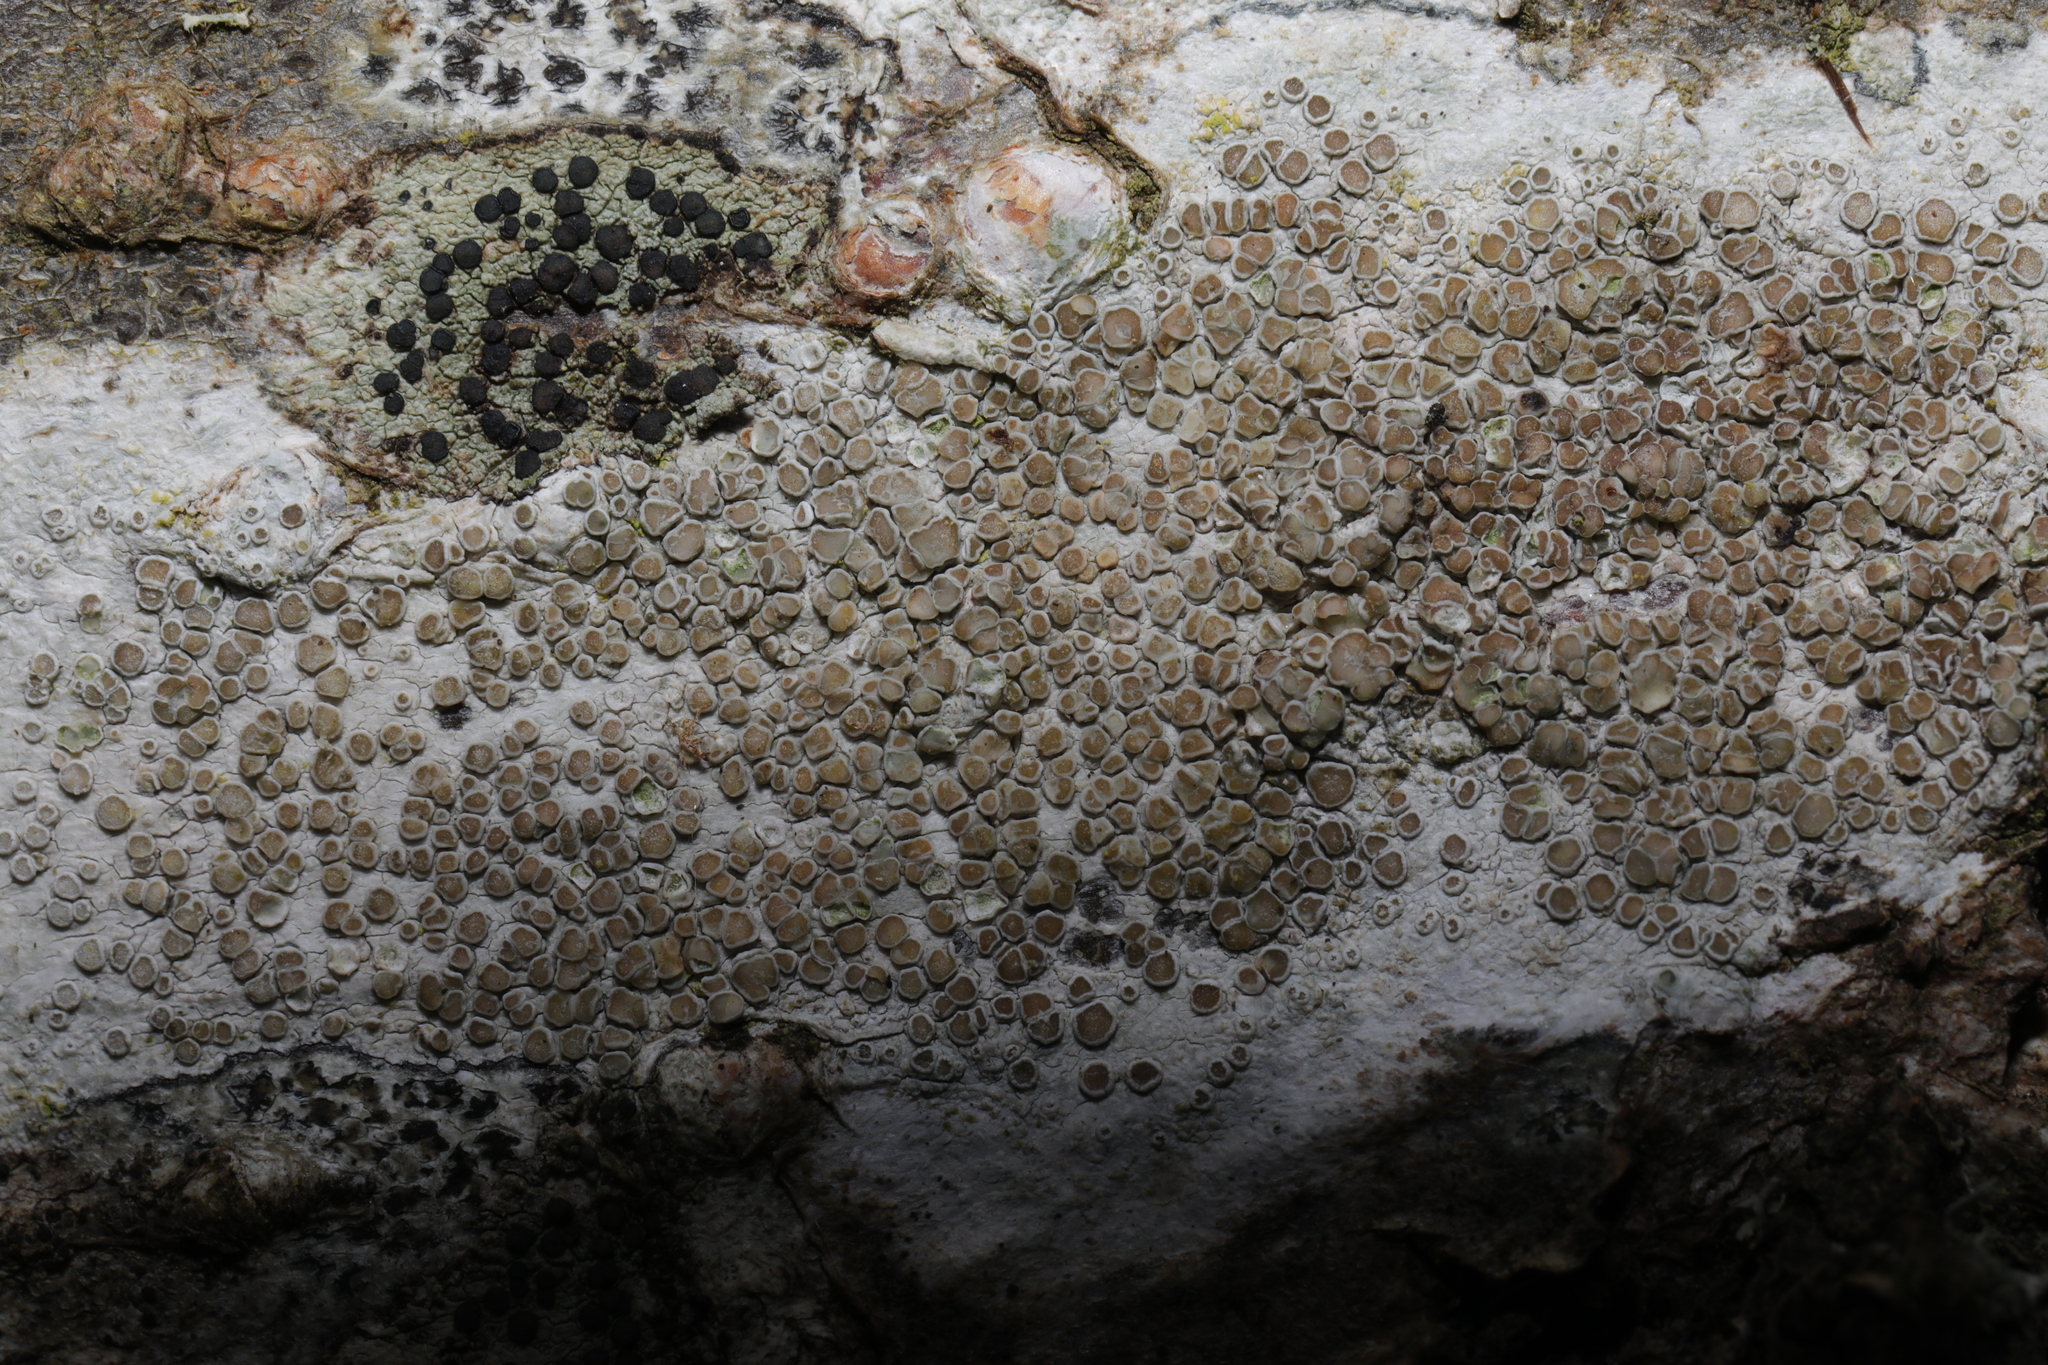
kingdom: Fungi
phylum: Ascomycota
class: Lecanoromycetes
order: Lecanorales
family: Lecanoraceae
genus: Lecanora
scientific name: Lecanora
